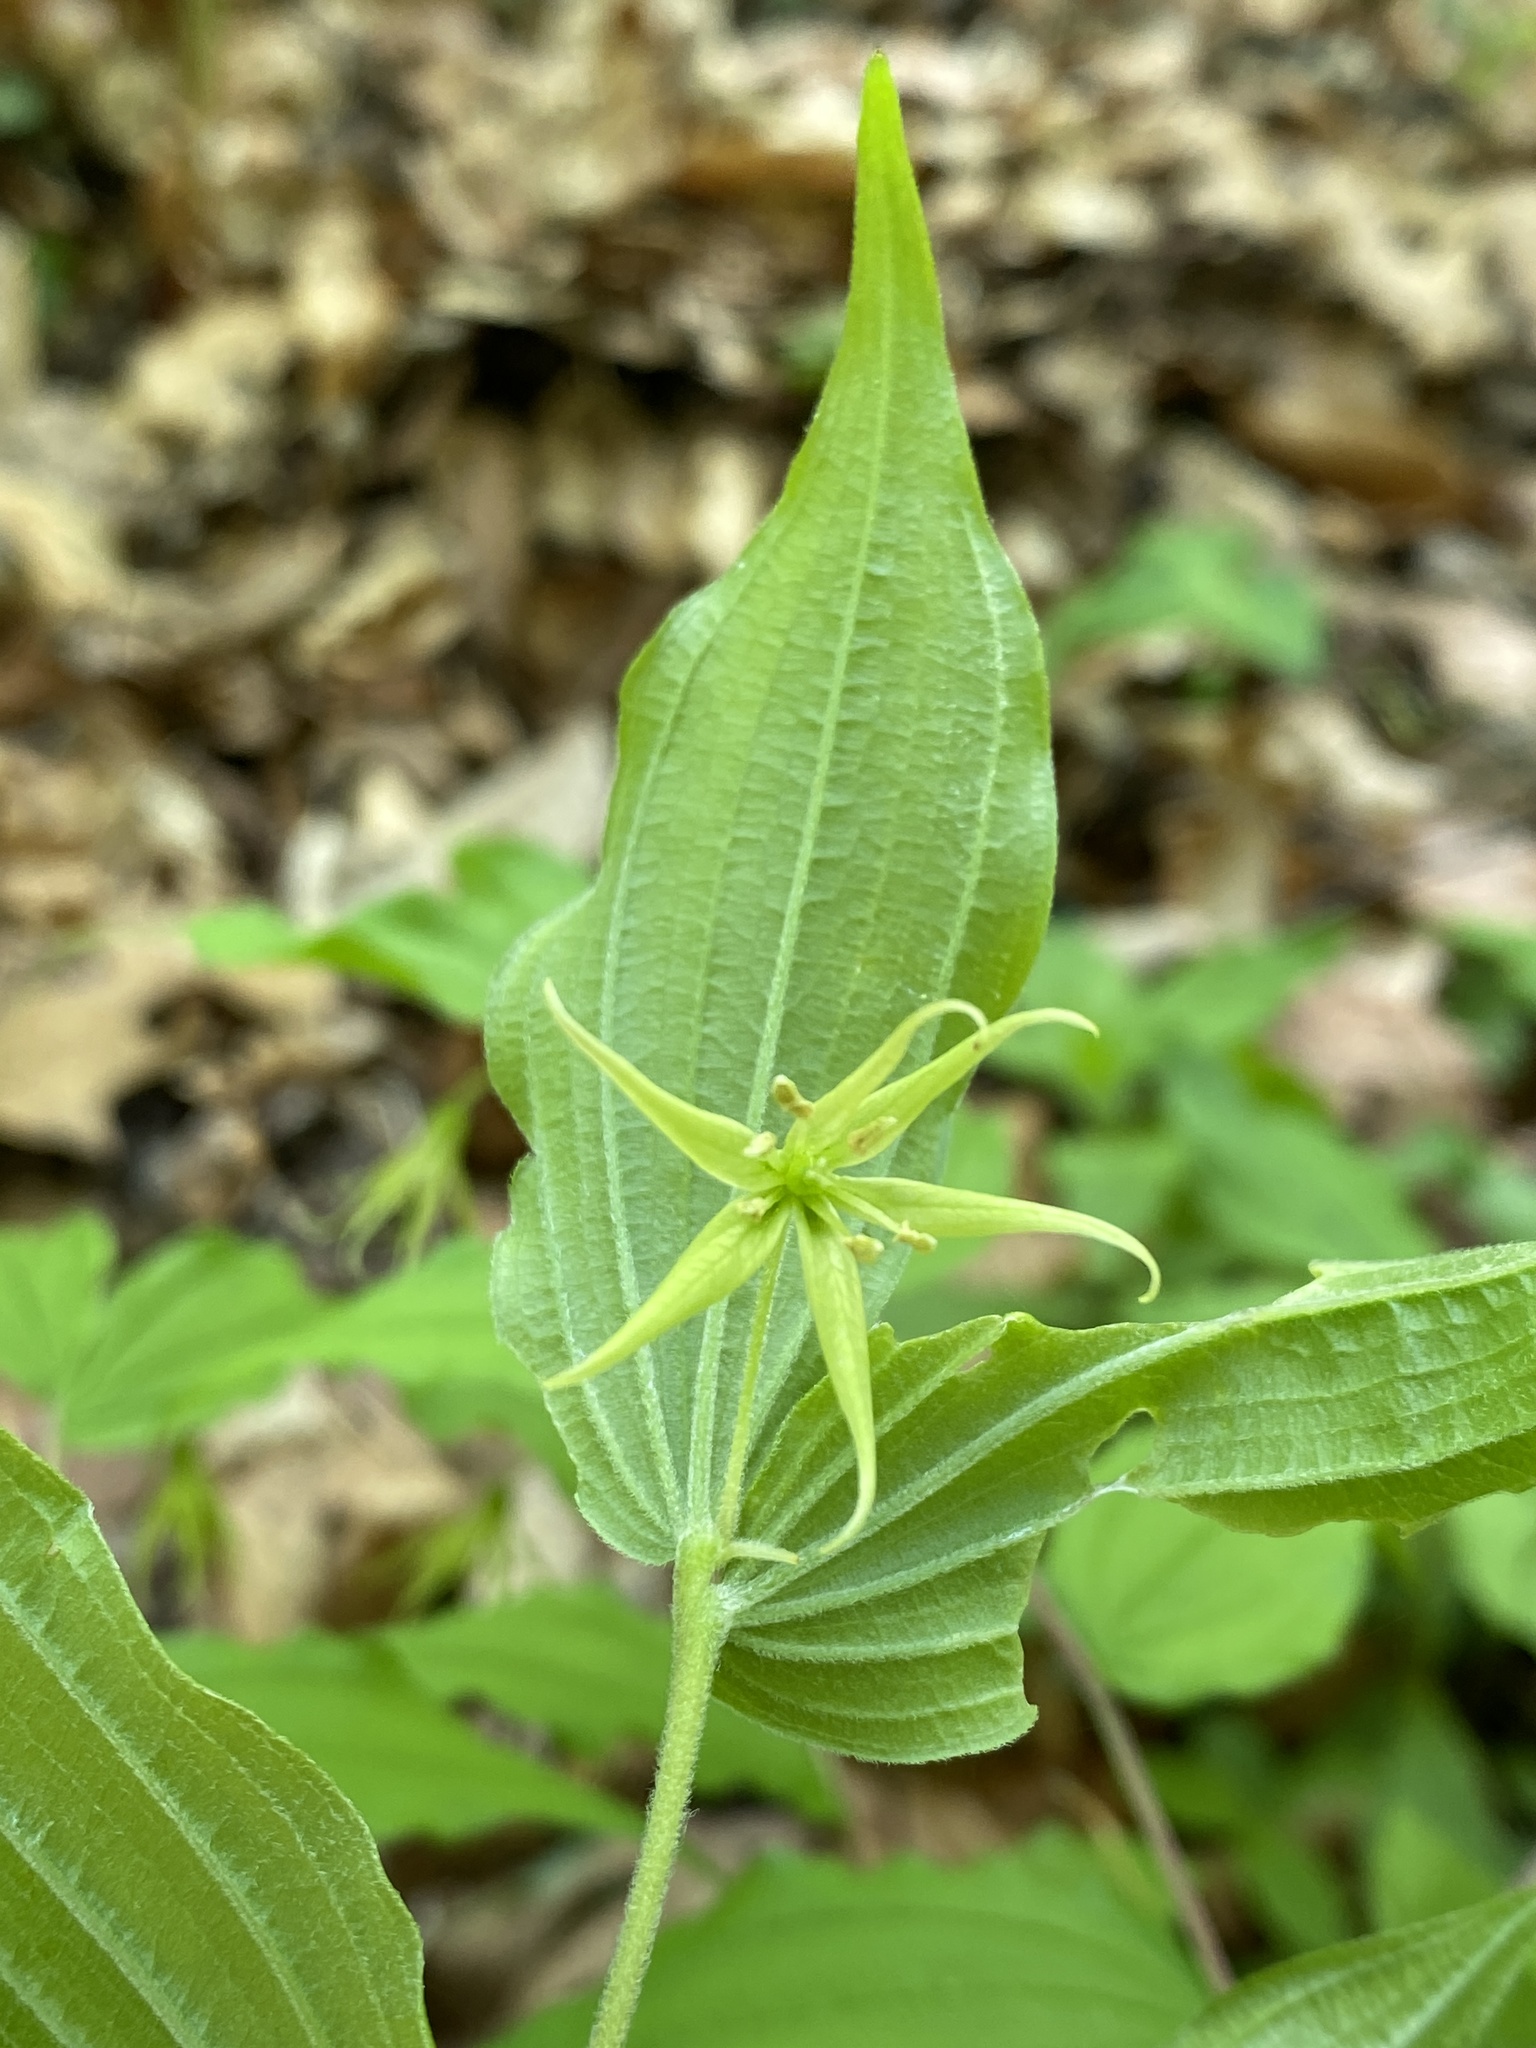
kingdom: Plantae
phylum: Tracheophyta
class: Liliopsida
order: Liliales
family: Liliaceae
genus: Prosartes
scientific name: Prosartes lanuginosa
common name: Hairy mandarin
